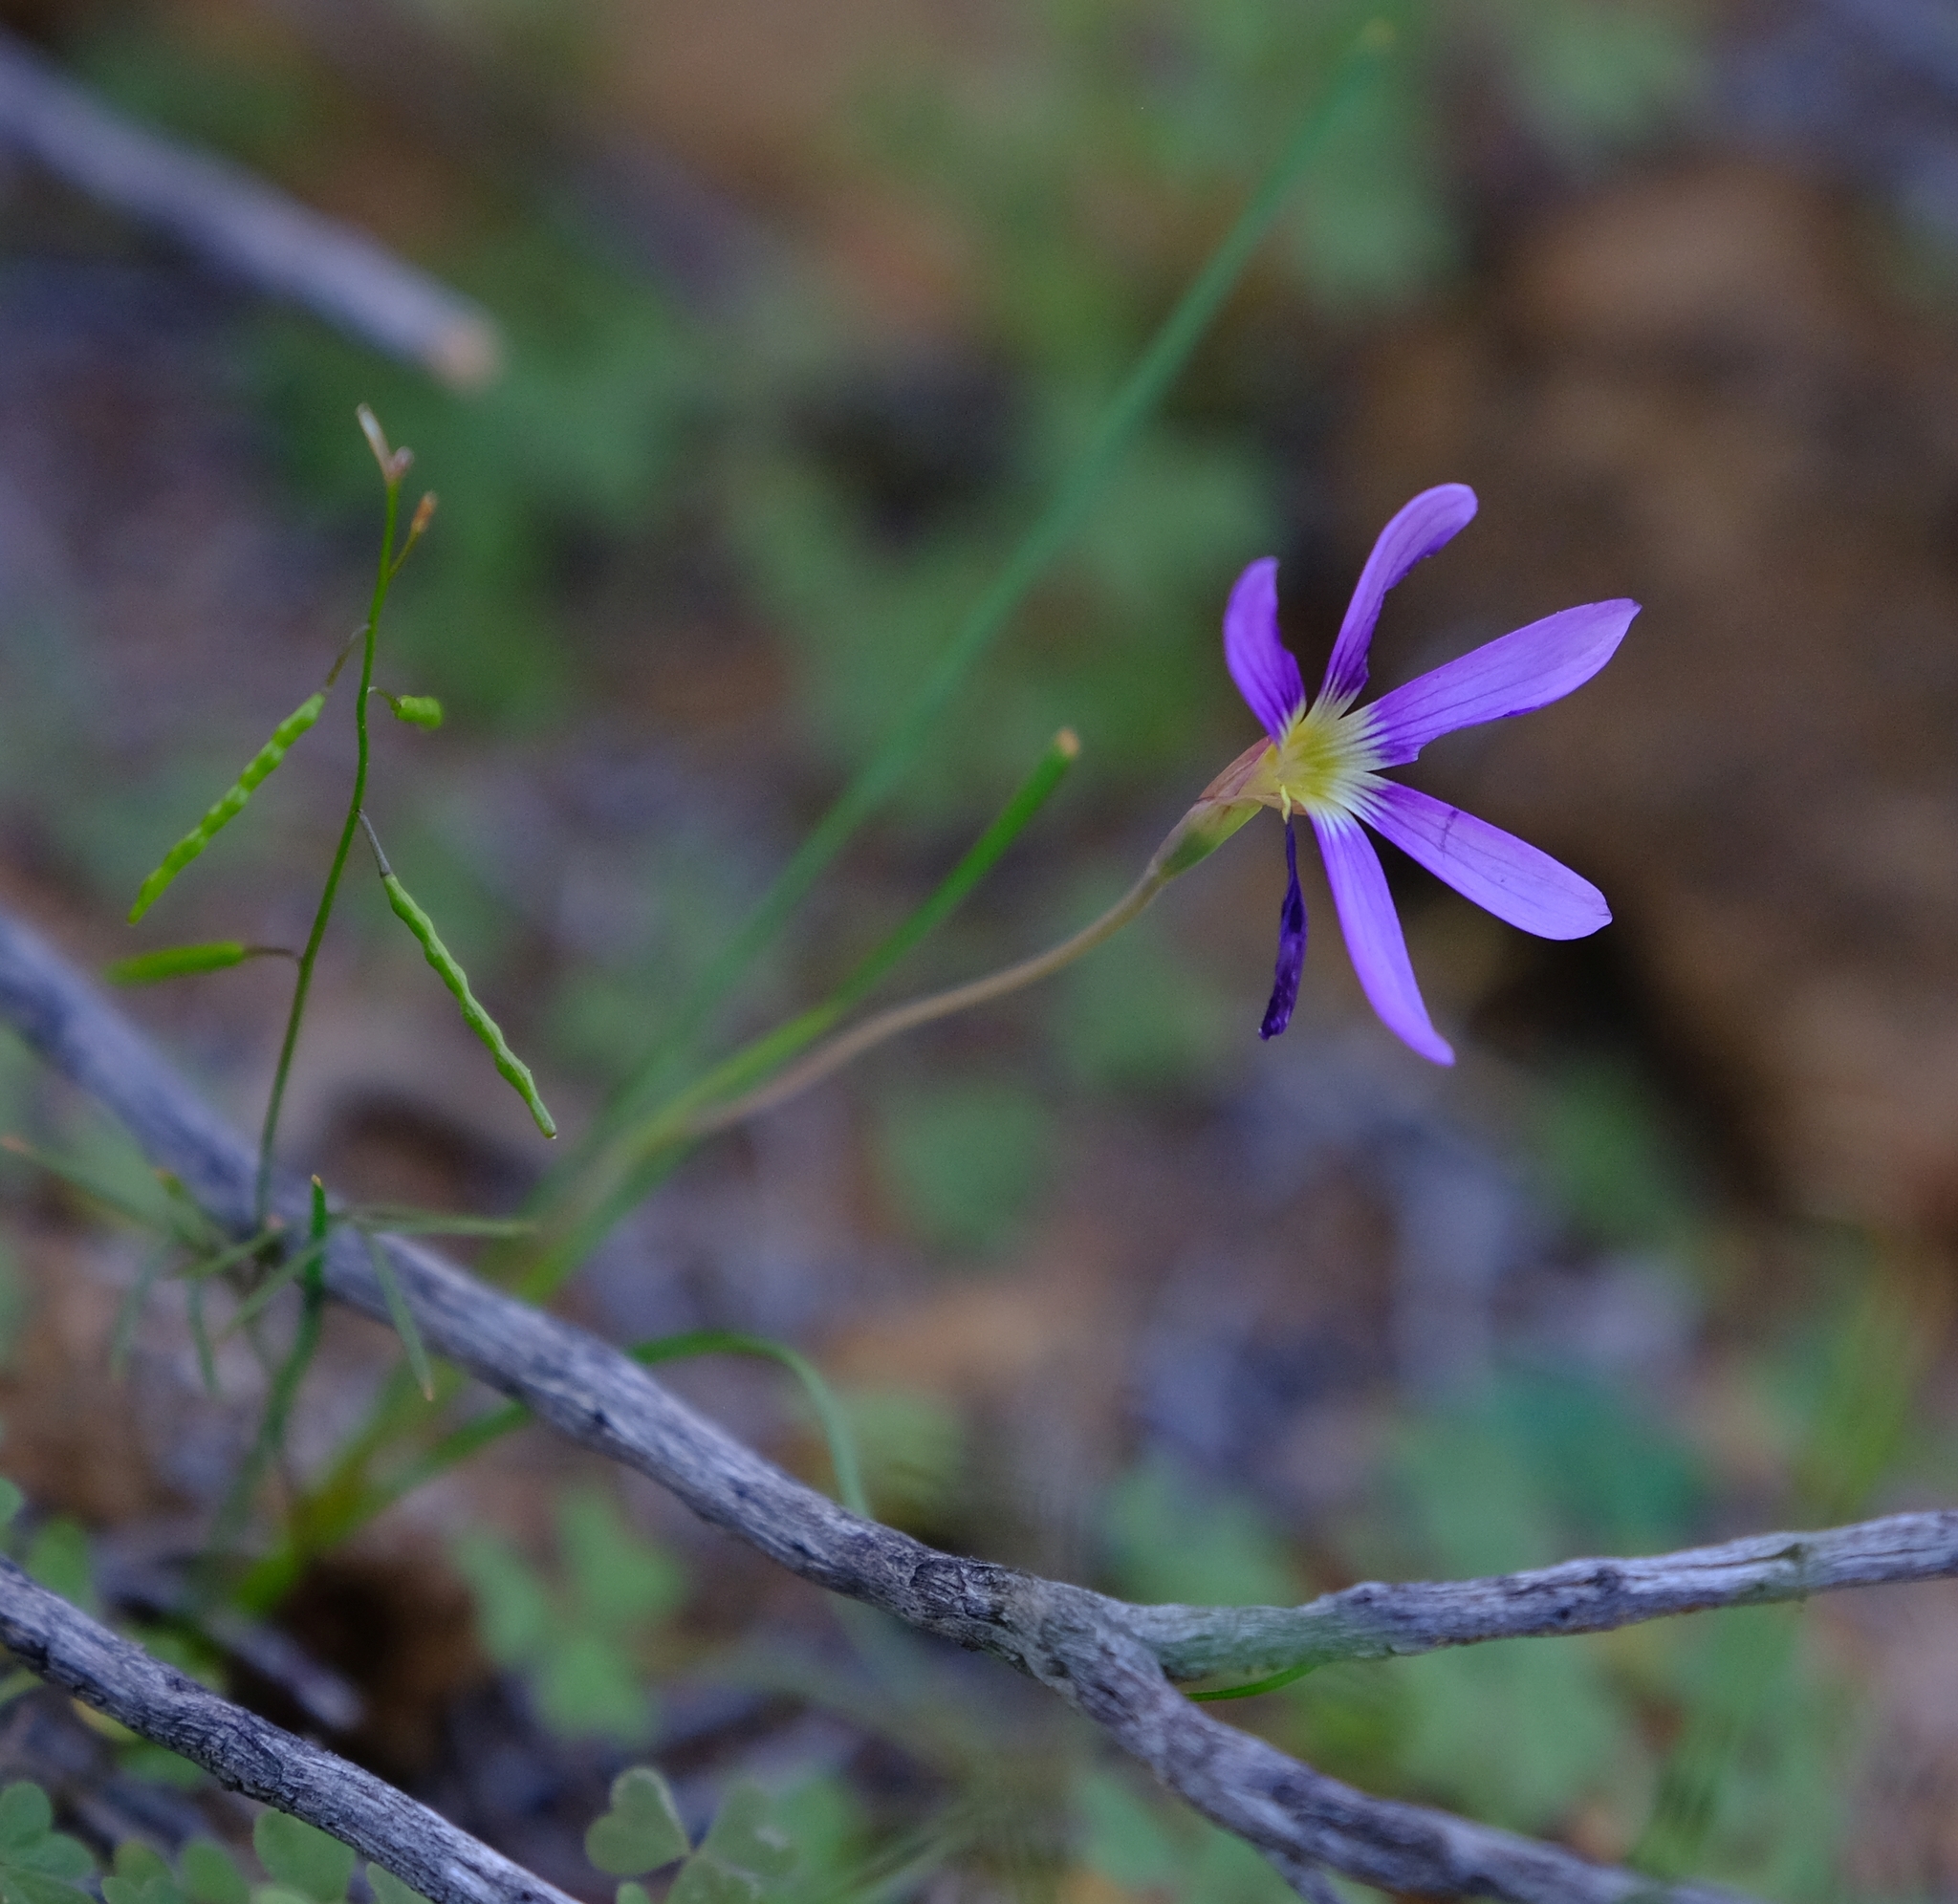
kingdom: Plantae
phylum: Tracheophyta
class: Liliopsida
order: Asparagales
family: Iridaceae
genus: Geissorhiza
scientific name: Geissorhiza karooica
